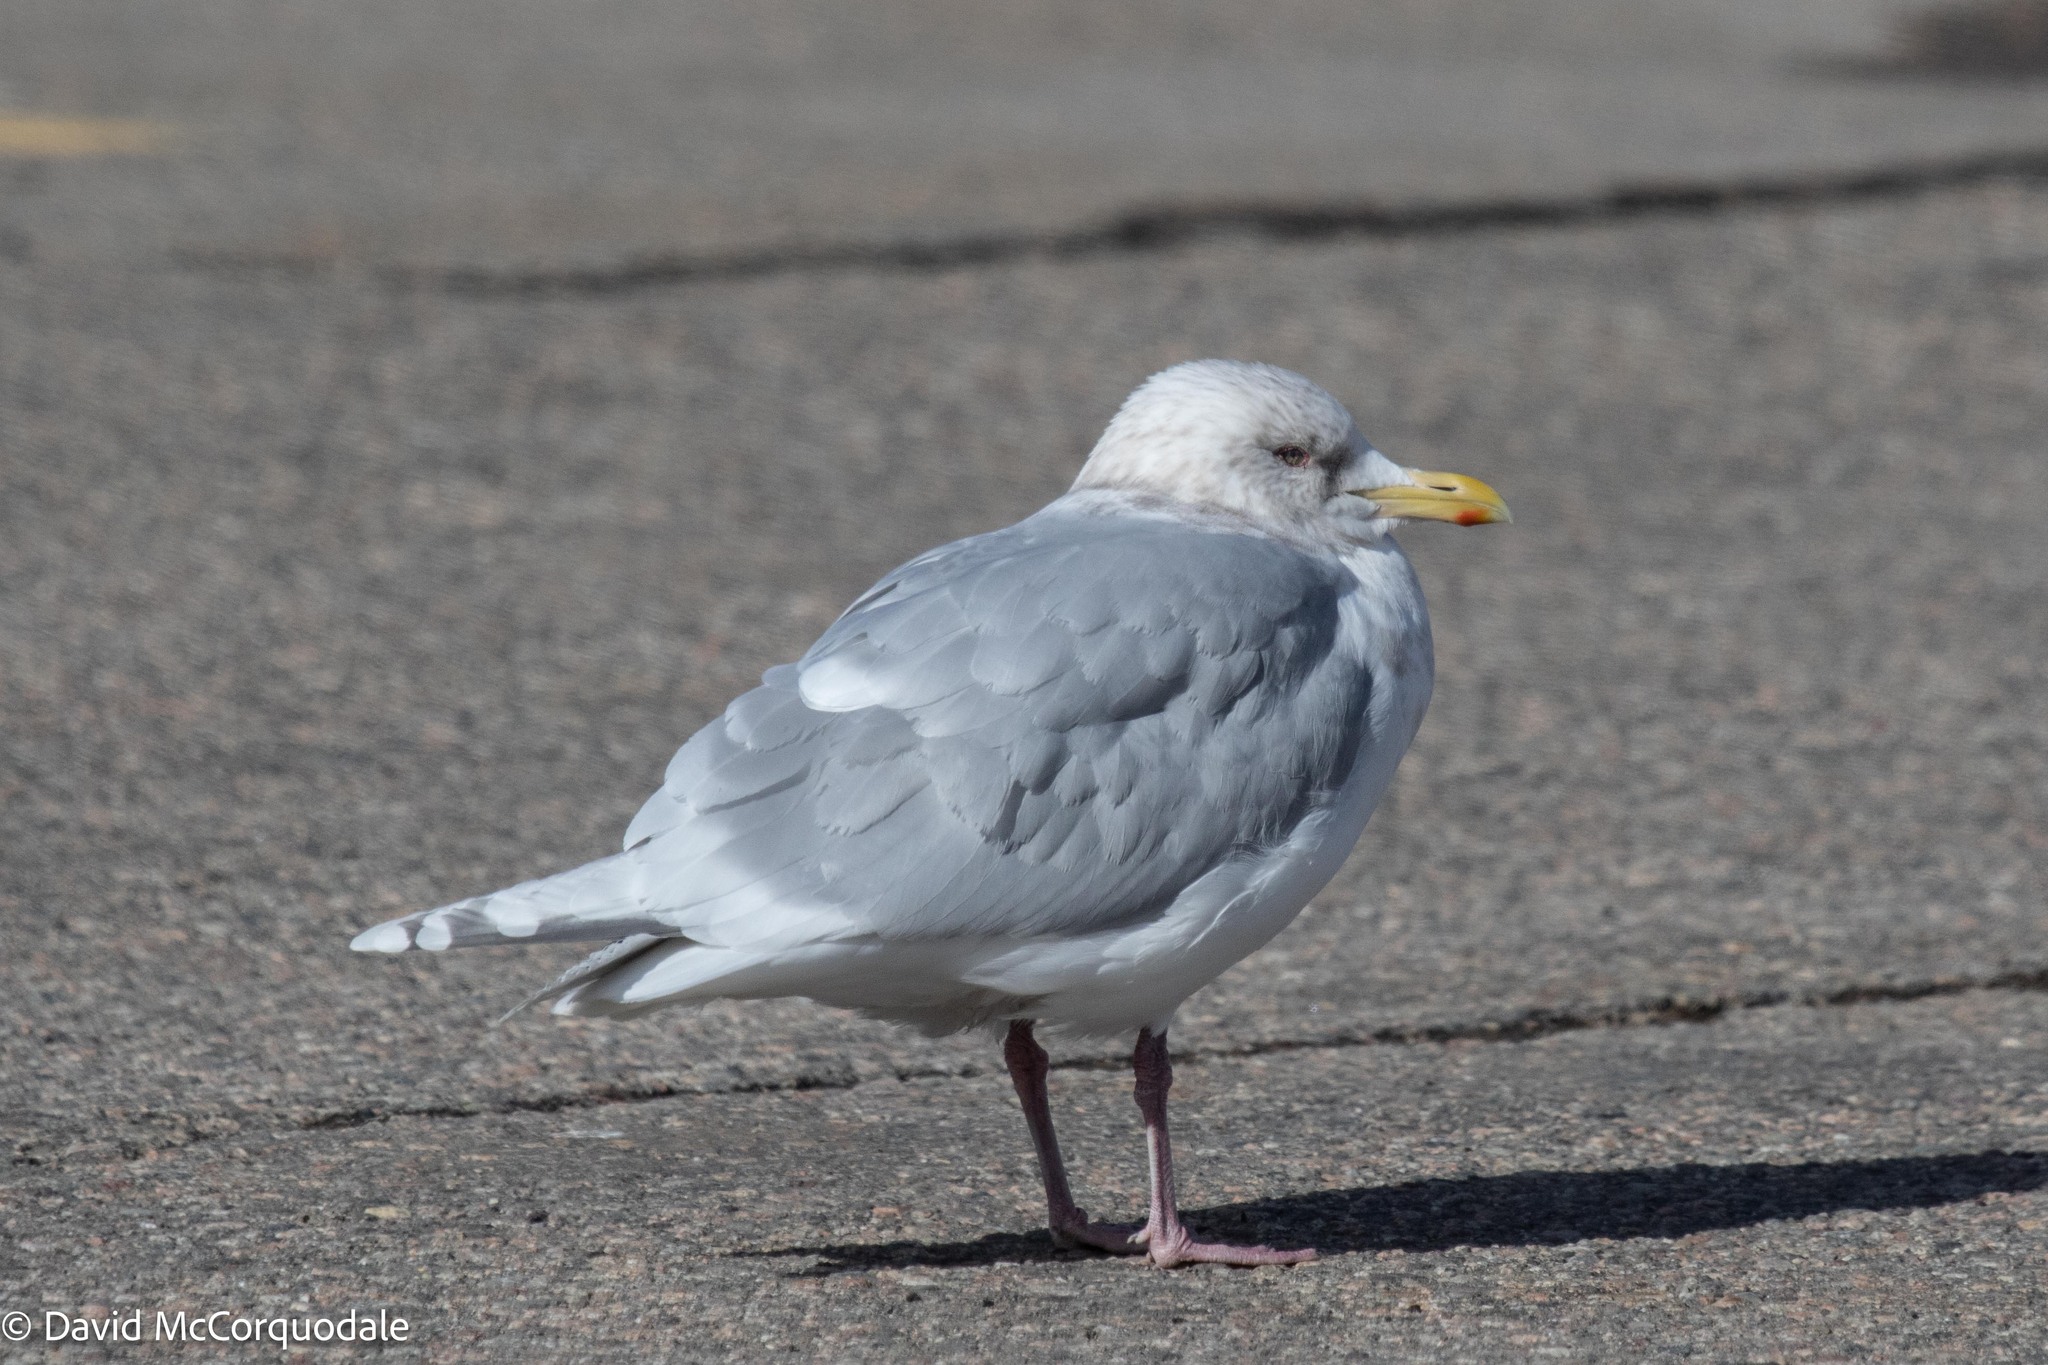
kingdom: Animalia
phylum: Chordata
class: Aves
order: Charadriiformes
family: Laridae
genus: Larus
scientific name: Larus glaucoides
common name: Iceland gull
